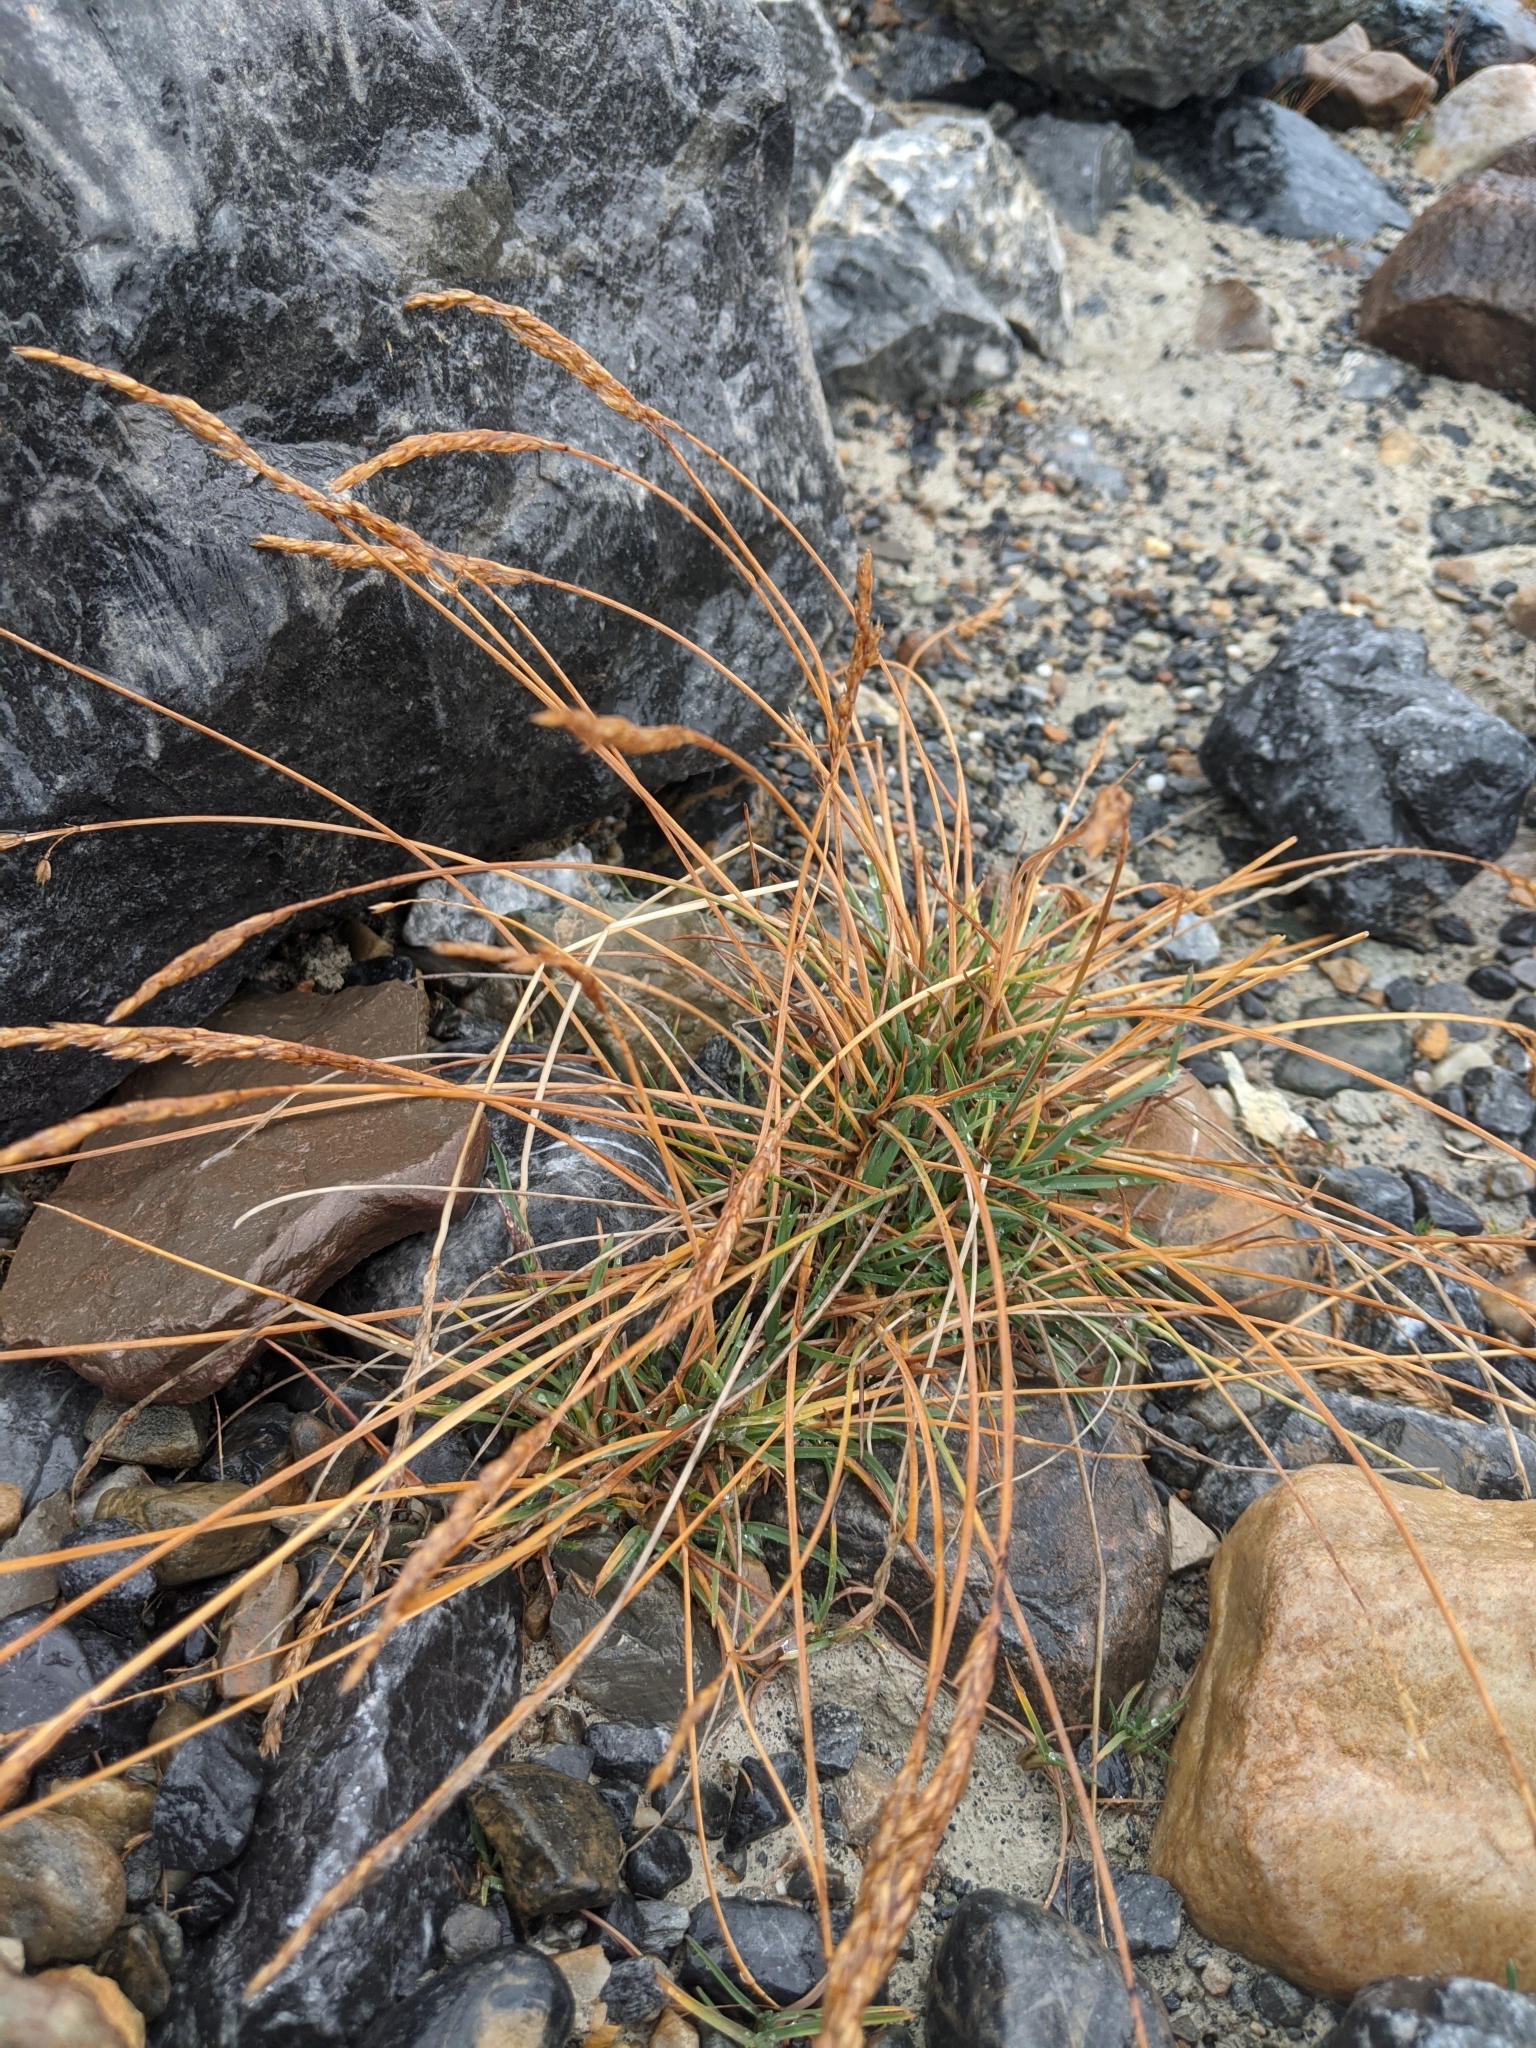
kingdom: Plantae
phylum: Tracheophyta
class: Liliopsida
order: Poales
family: Poaceae
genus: Koeleria
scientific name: Koeleria spicata
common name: Mountain trisetum
